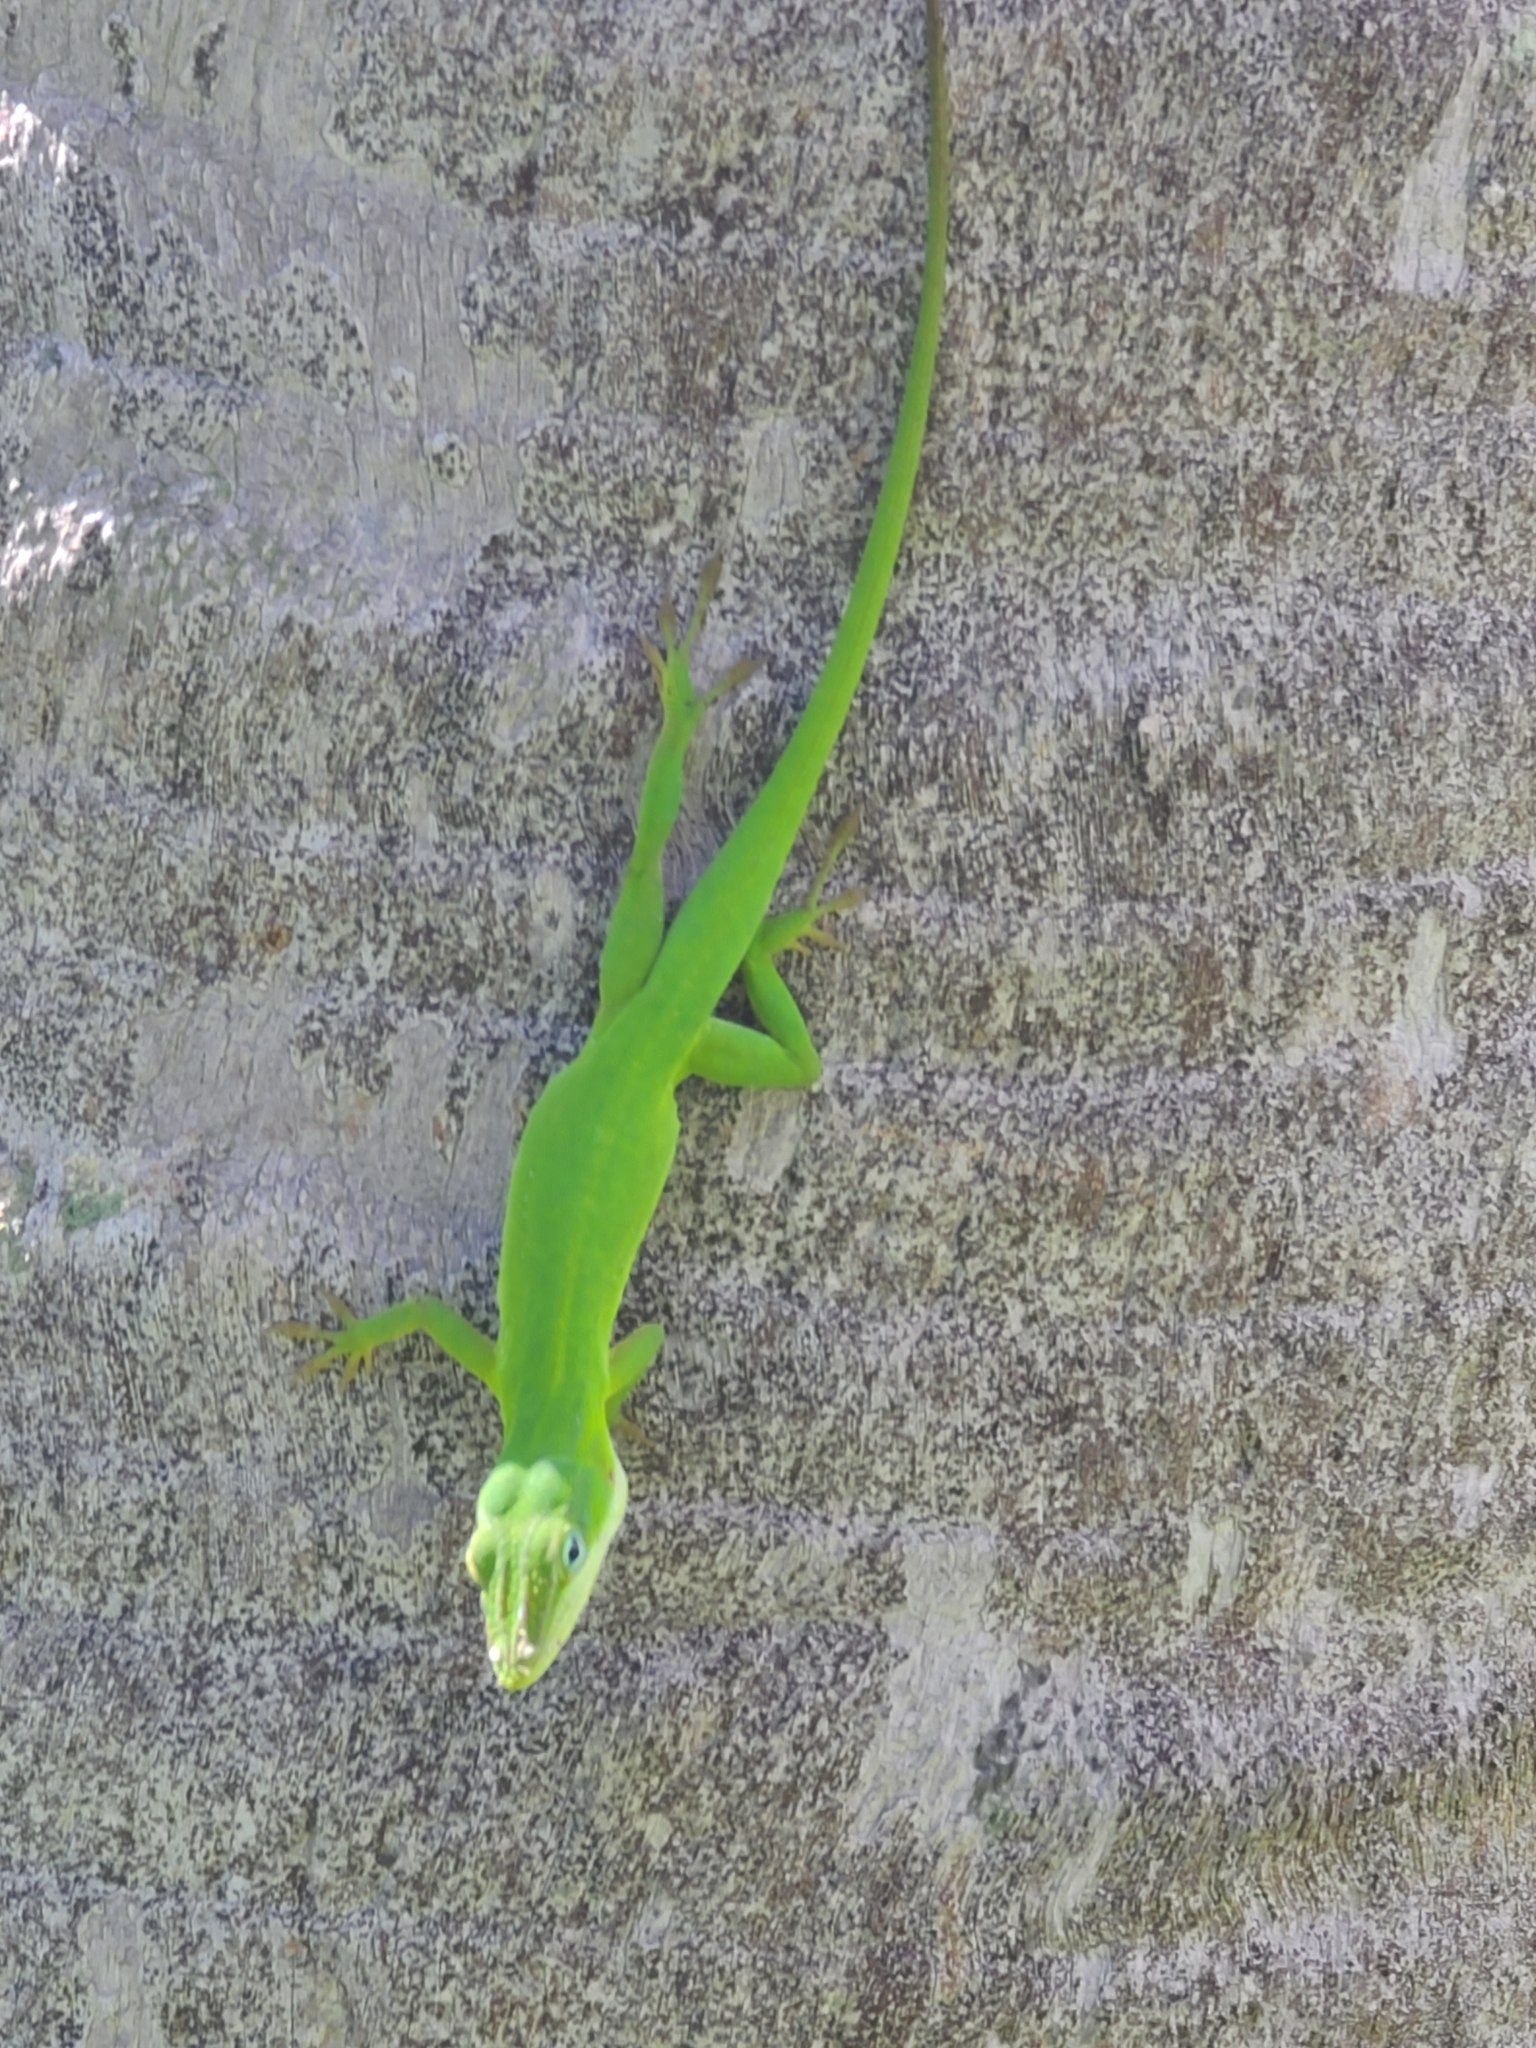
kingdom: Animalia
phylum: Chordata
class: Squamata
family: Dactyloidae
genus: Anolis
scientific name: Anolis carolinensis
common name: Green anole
